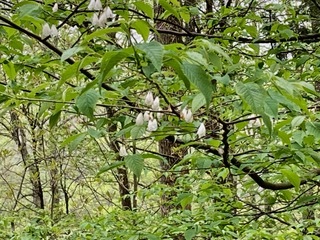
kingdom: Plantae
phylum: Tracheophyta
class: Magnoliopsida
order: Ericales
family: Styracaceae
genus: Halesia
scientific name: Halesia carolina
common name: Carolina silverbell
